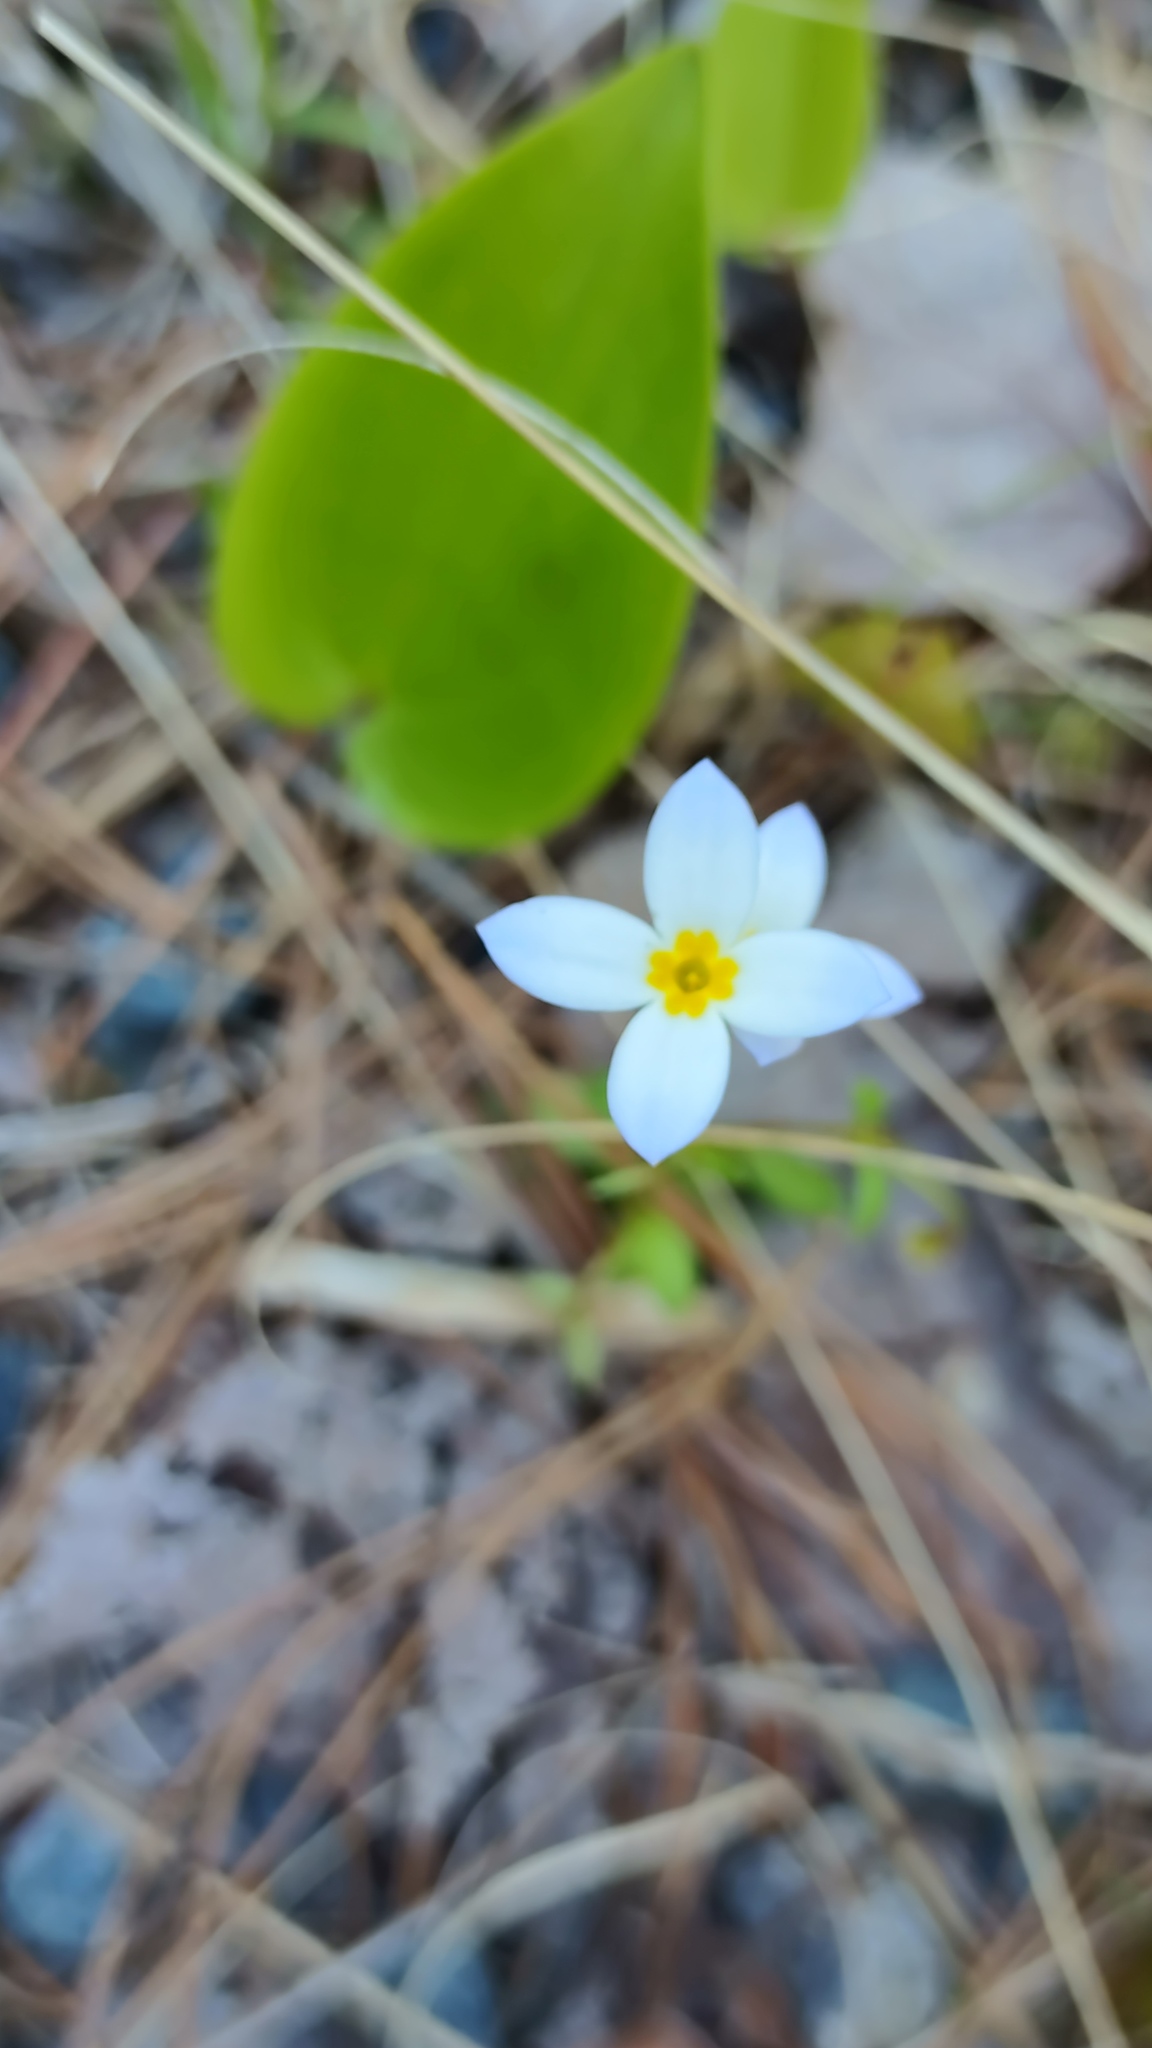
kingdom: Plantae
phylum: Tracheophyta
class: Magnoliopsida
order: Gentianales
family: Rubiaceae
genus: Houstonia
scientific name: Houstonia caerulea
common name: Bluets
